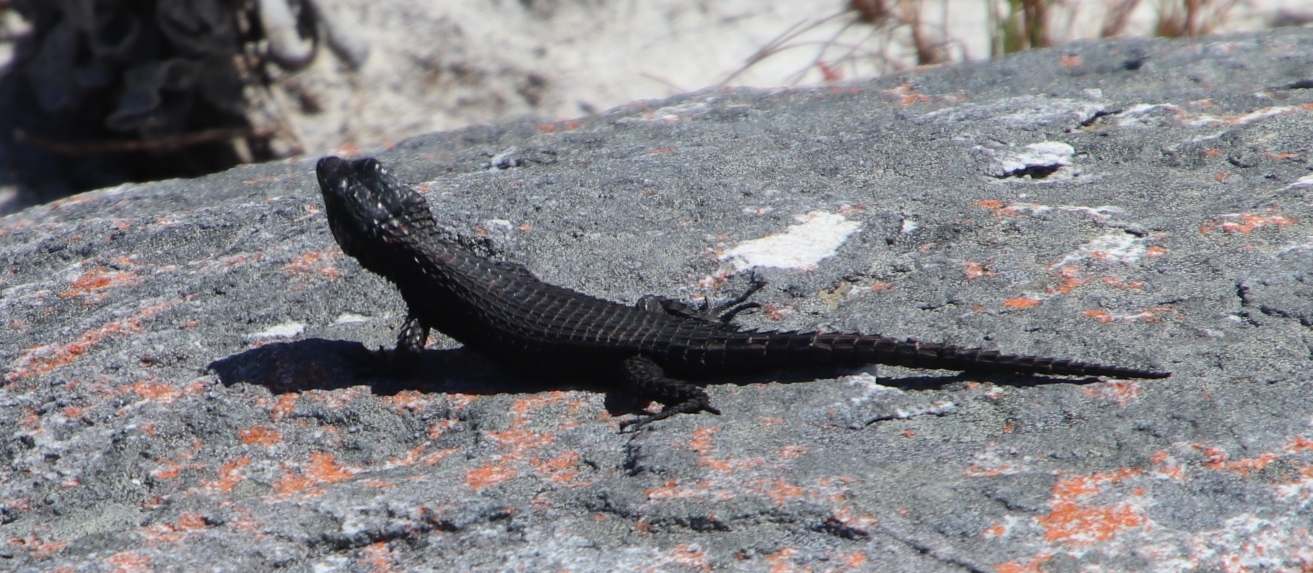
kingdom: Animalia
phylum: Chordata
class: Squamata
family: Cordylidae
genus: Cordylus
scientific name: Cordylus niger
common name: Black girdled lizard
